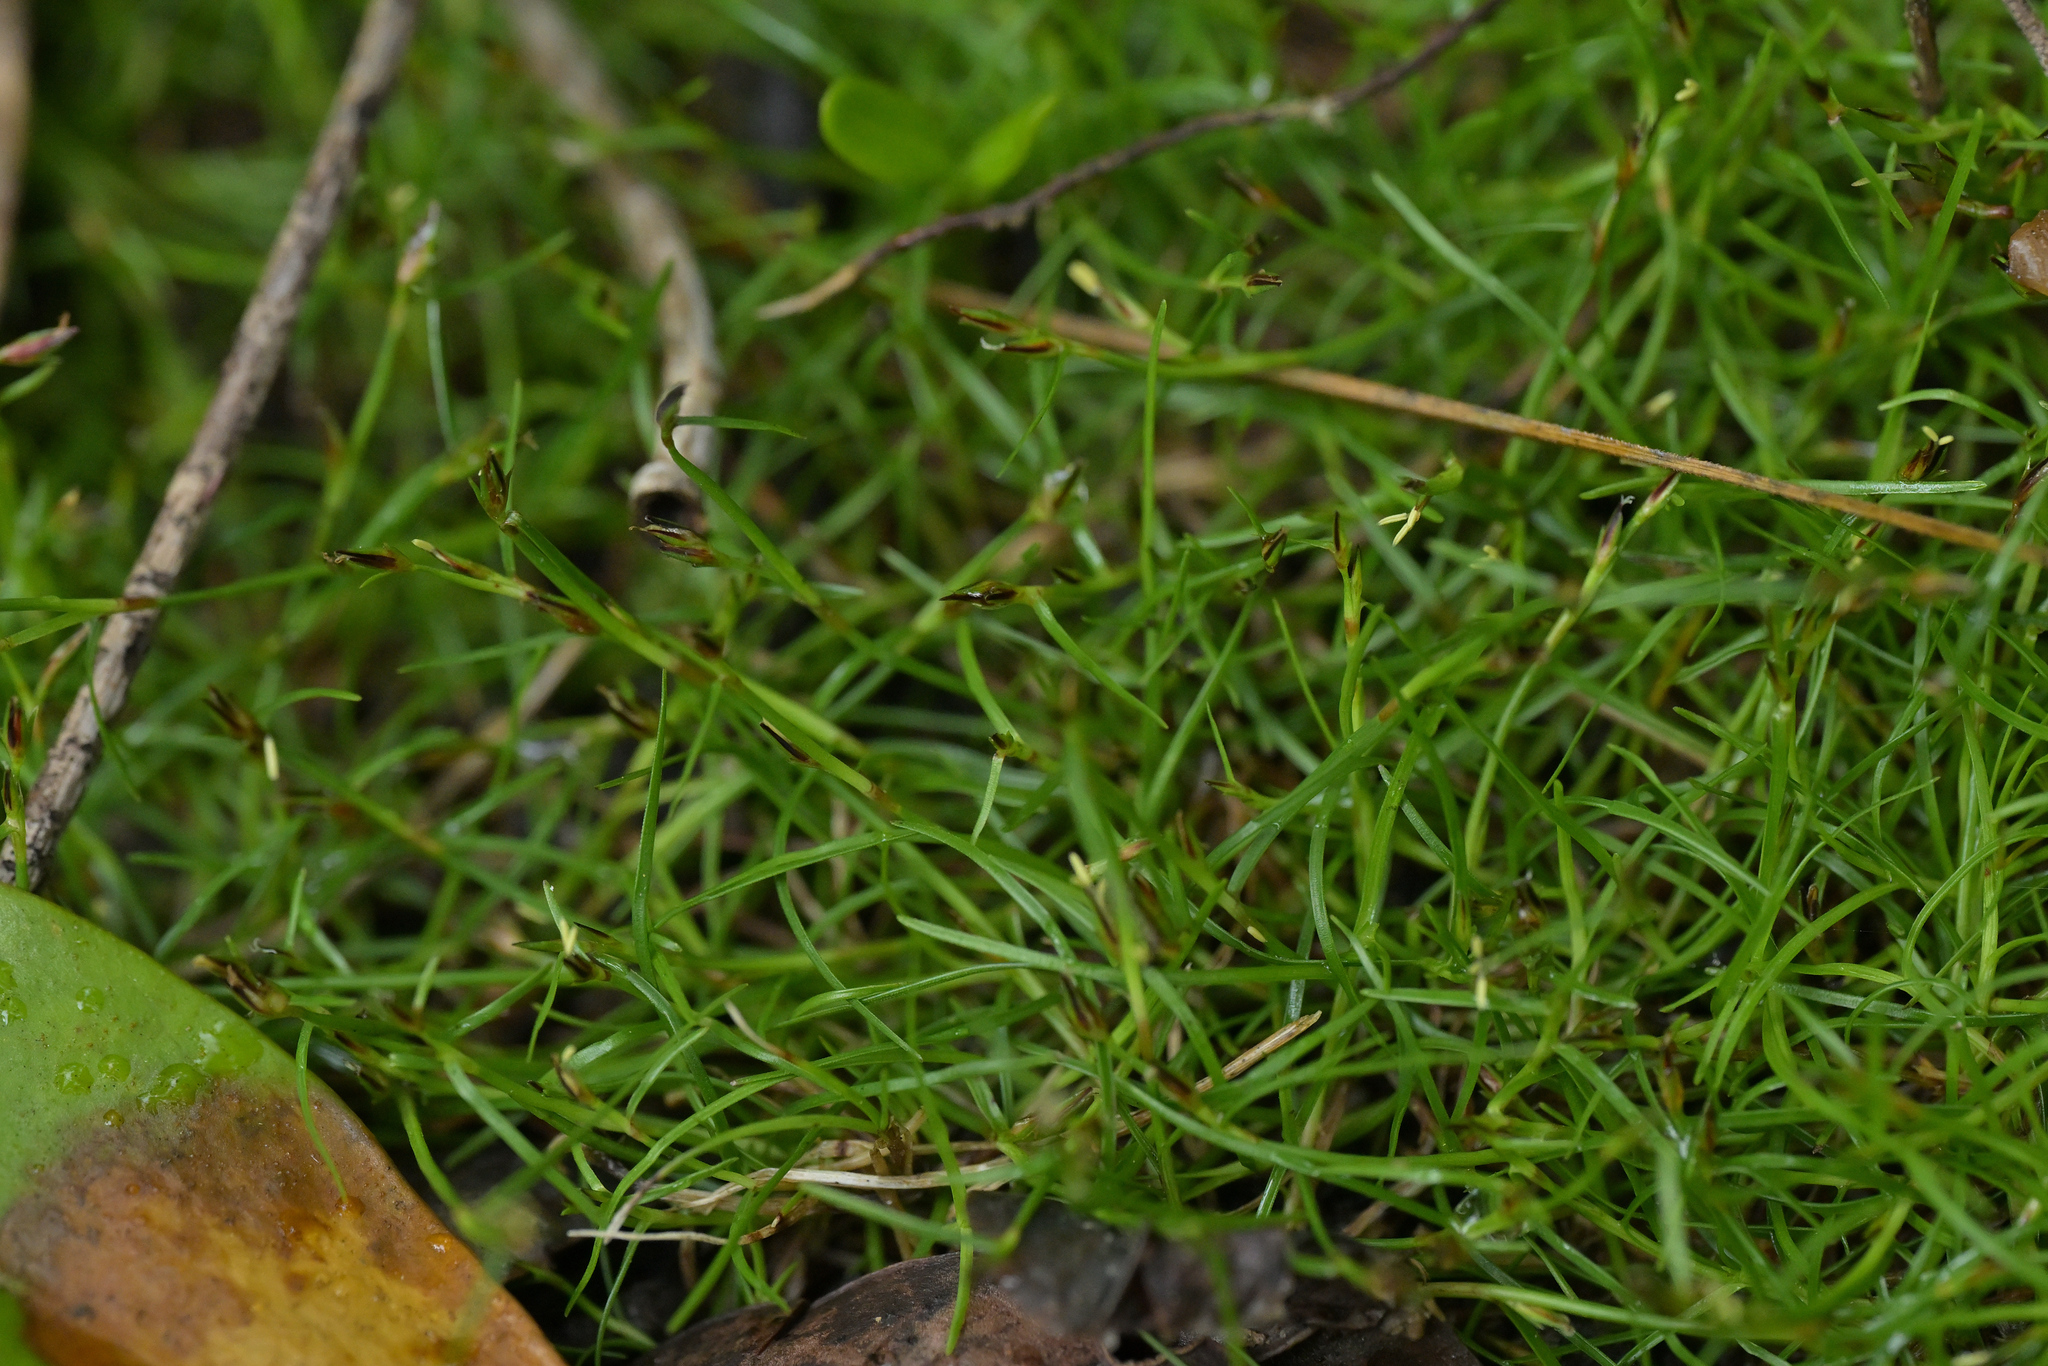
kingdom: Plantae
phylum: Tracheophyta
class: Liliopsida
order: Poales
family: Cyperaceae
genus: Schoenus
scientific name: Schoenus maschalinus
